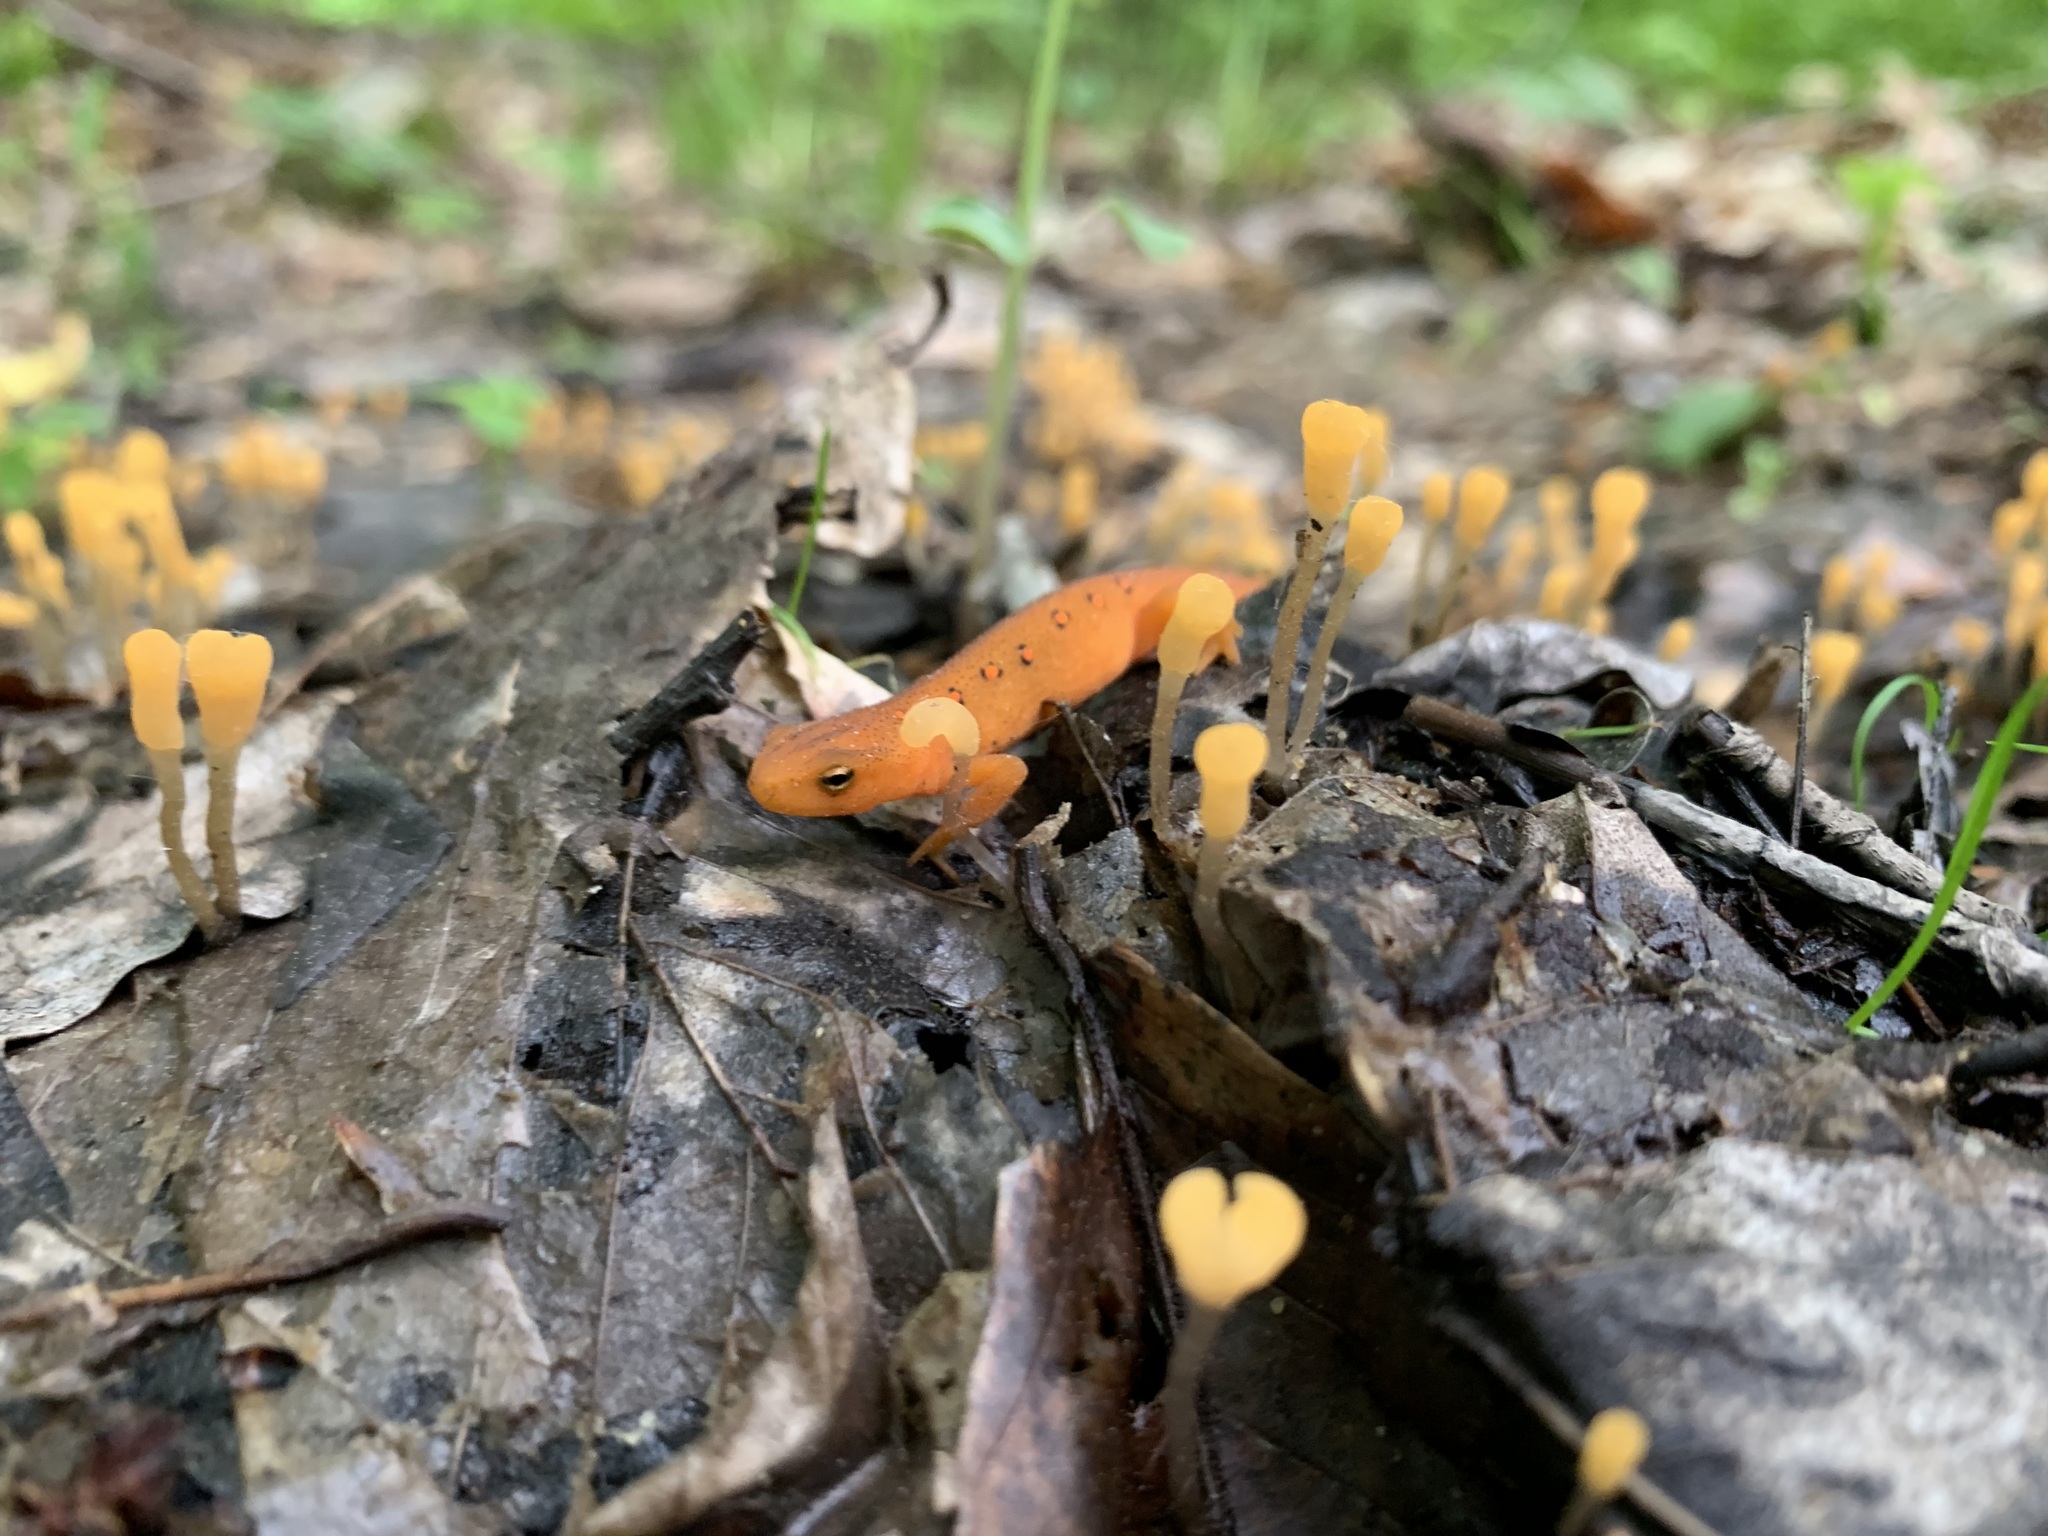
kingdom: Animalia
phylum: Chordata
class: Amphibia
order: Caudata
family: Salamandridae
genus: Notophthalmus
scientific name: Notophthalmus viridescens
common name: Eastern newt
